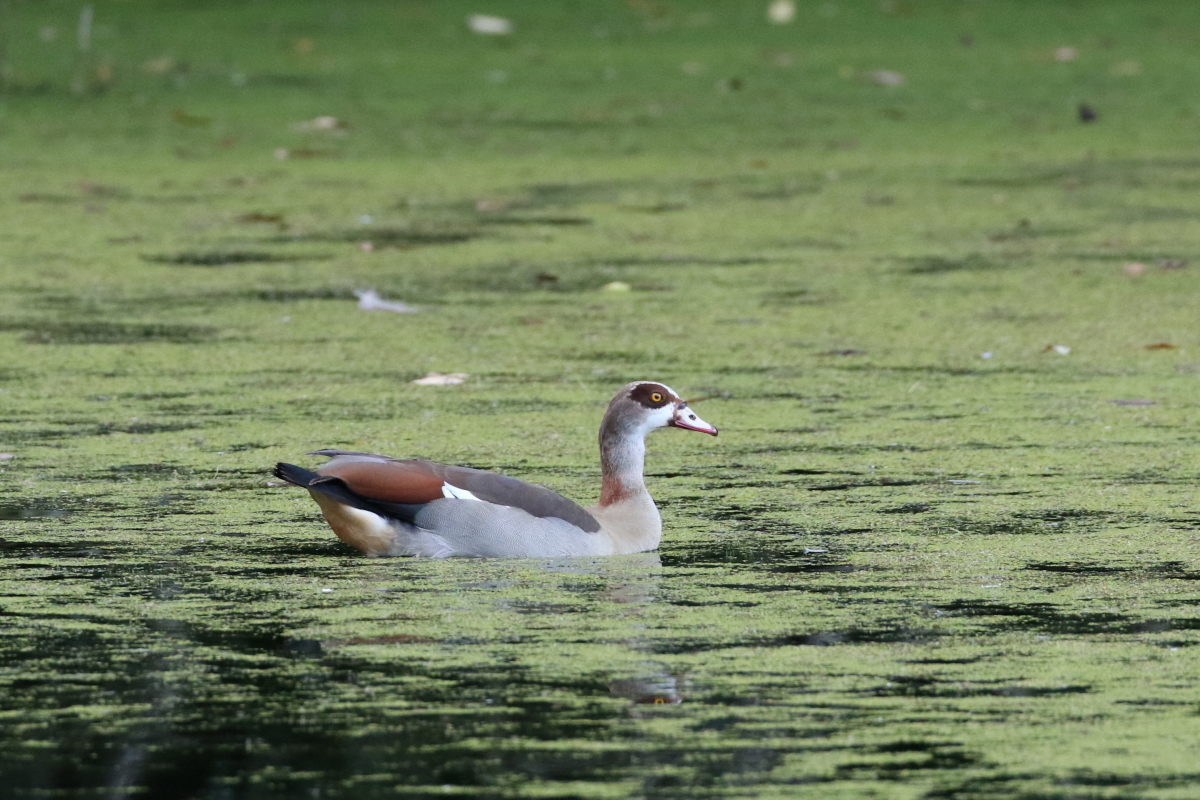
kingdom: Animalia
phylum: Chordata
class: Aves
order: Anseriformes
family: Anatidae
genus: Alopochen
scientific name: Alopochen aegyptiaca
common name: Egyptian goose
